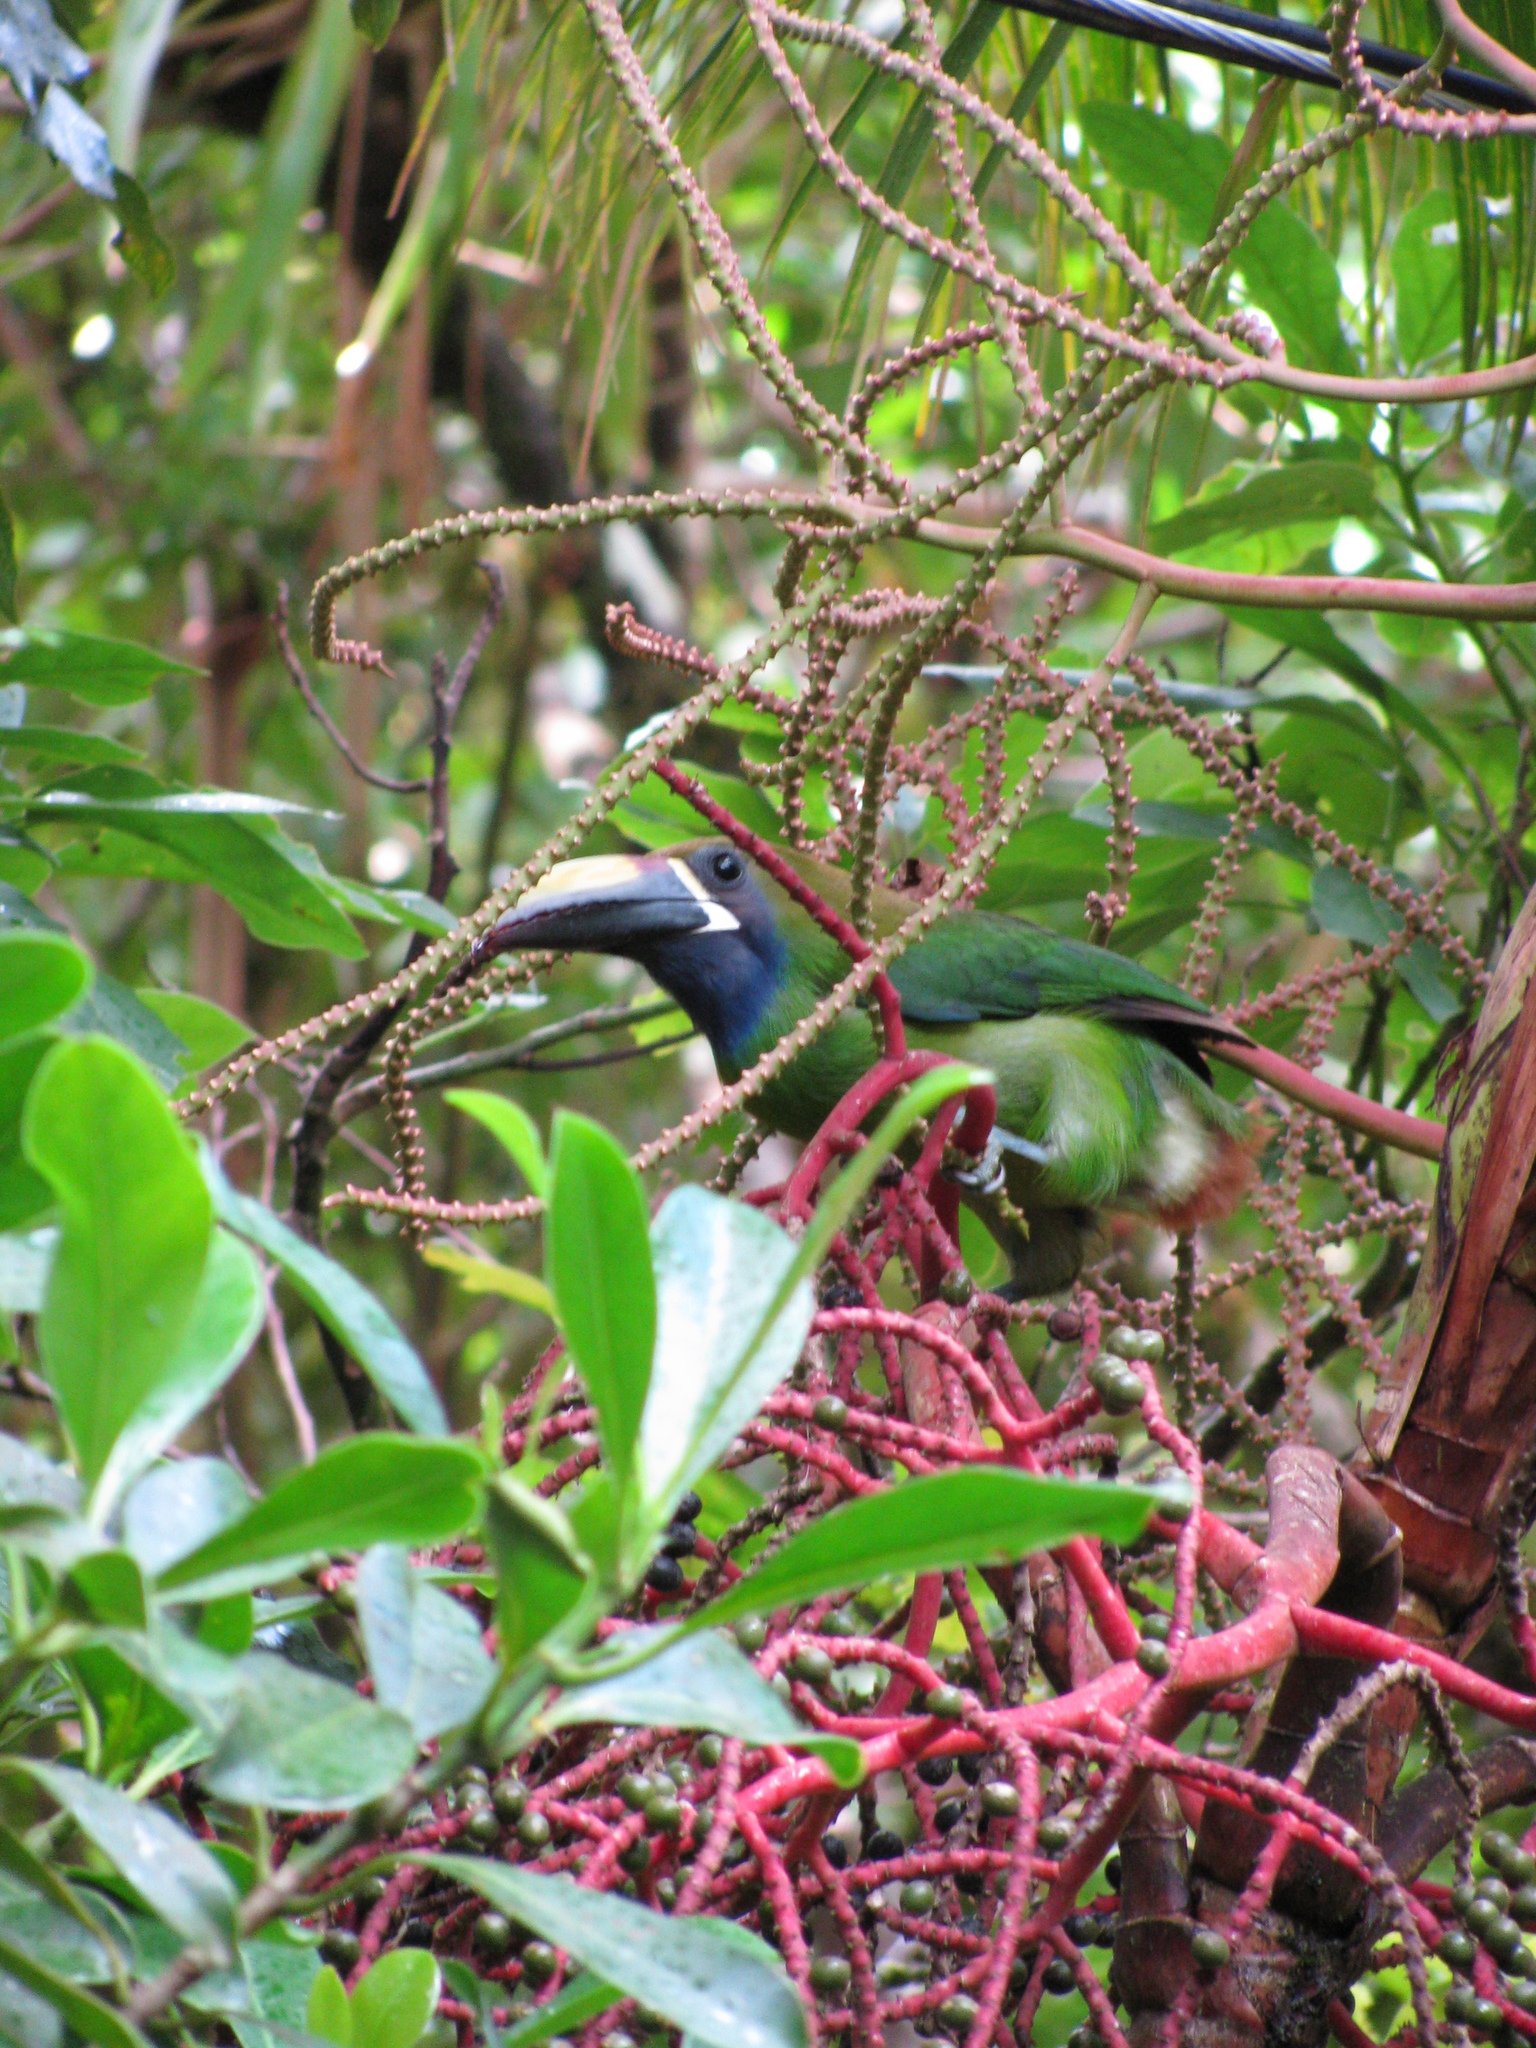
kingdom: Animalia
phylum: Chordata
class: Aves
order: Piciformes
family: Ramphastidae
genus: Aulacorhynchus
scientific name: Aulacorhynchus prasinus
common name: Emerald toucanet
